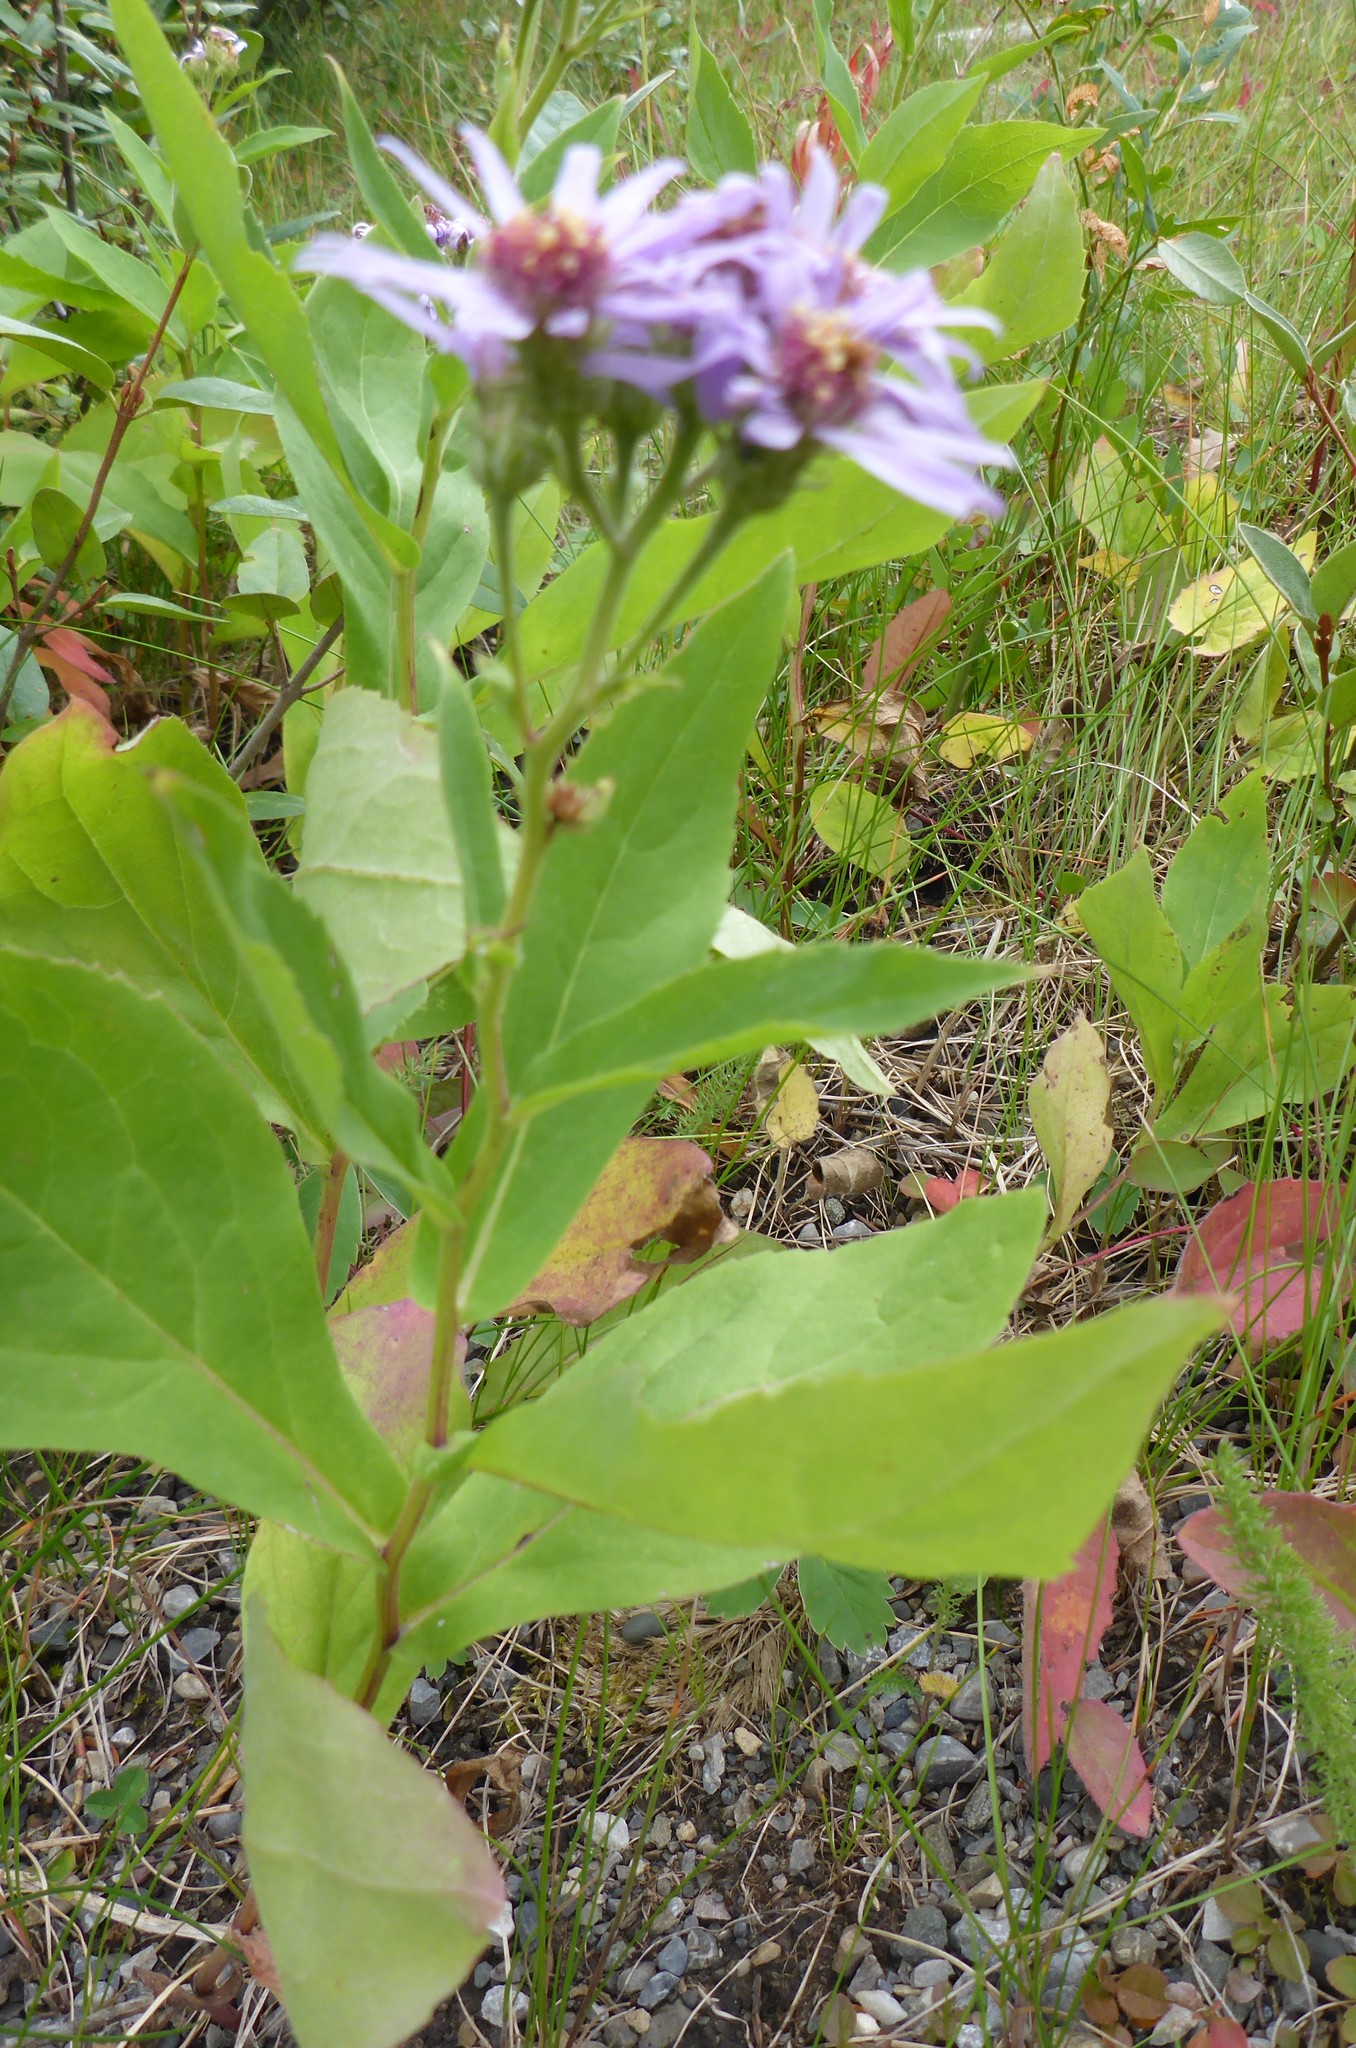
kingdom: Plantae
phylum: Tracheophyta
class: Magnoliopsida
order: Asterales
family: Asteraceae
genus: Eurybia
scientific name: Eurybia conspicua
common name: Showy aster
